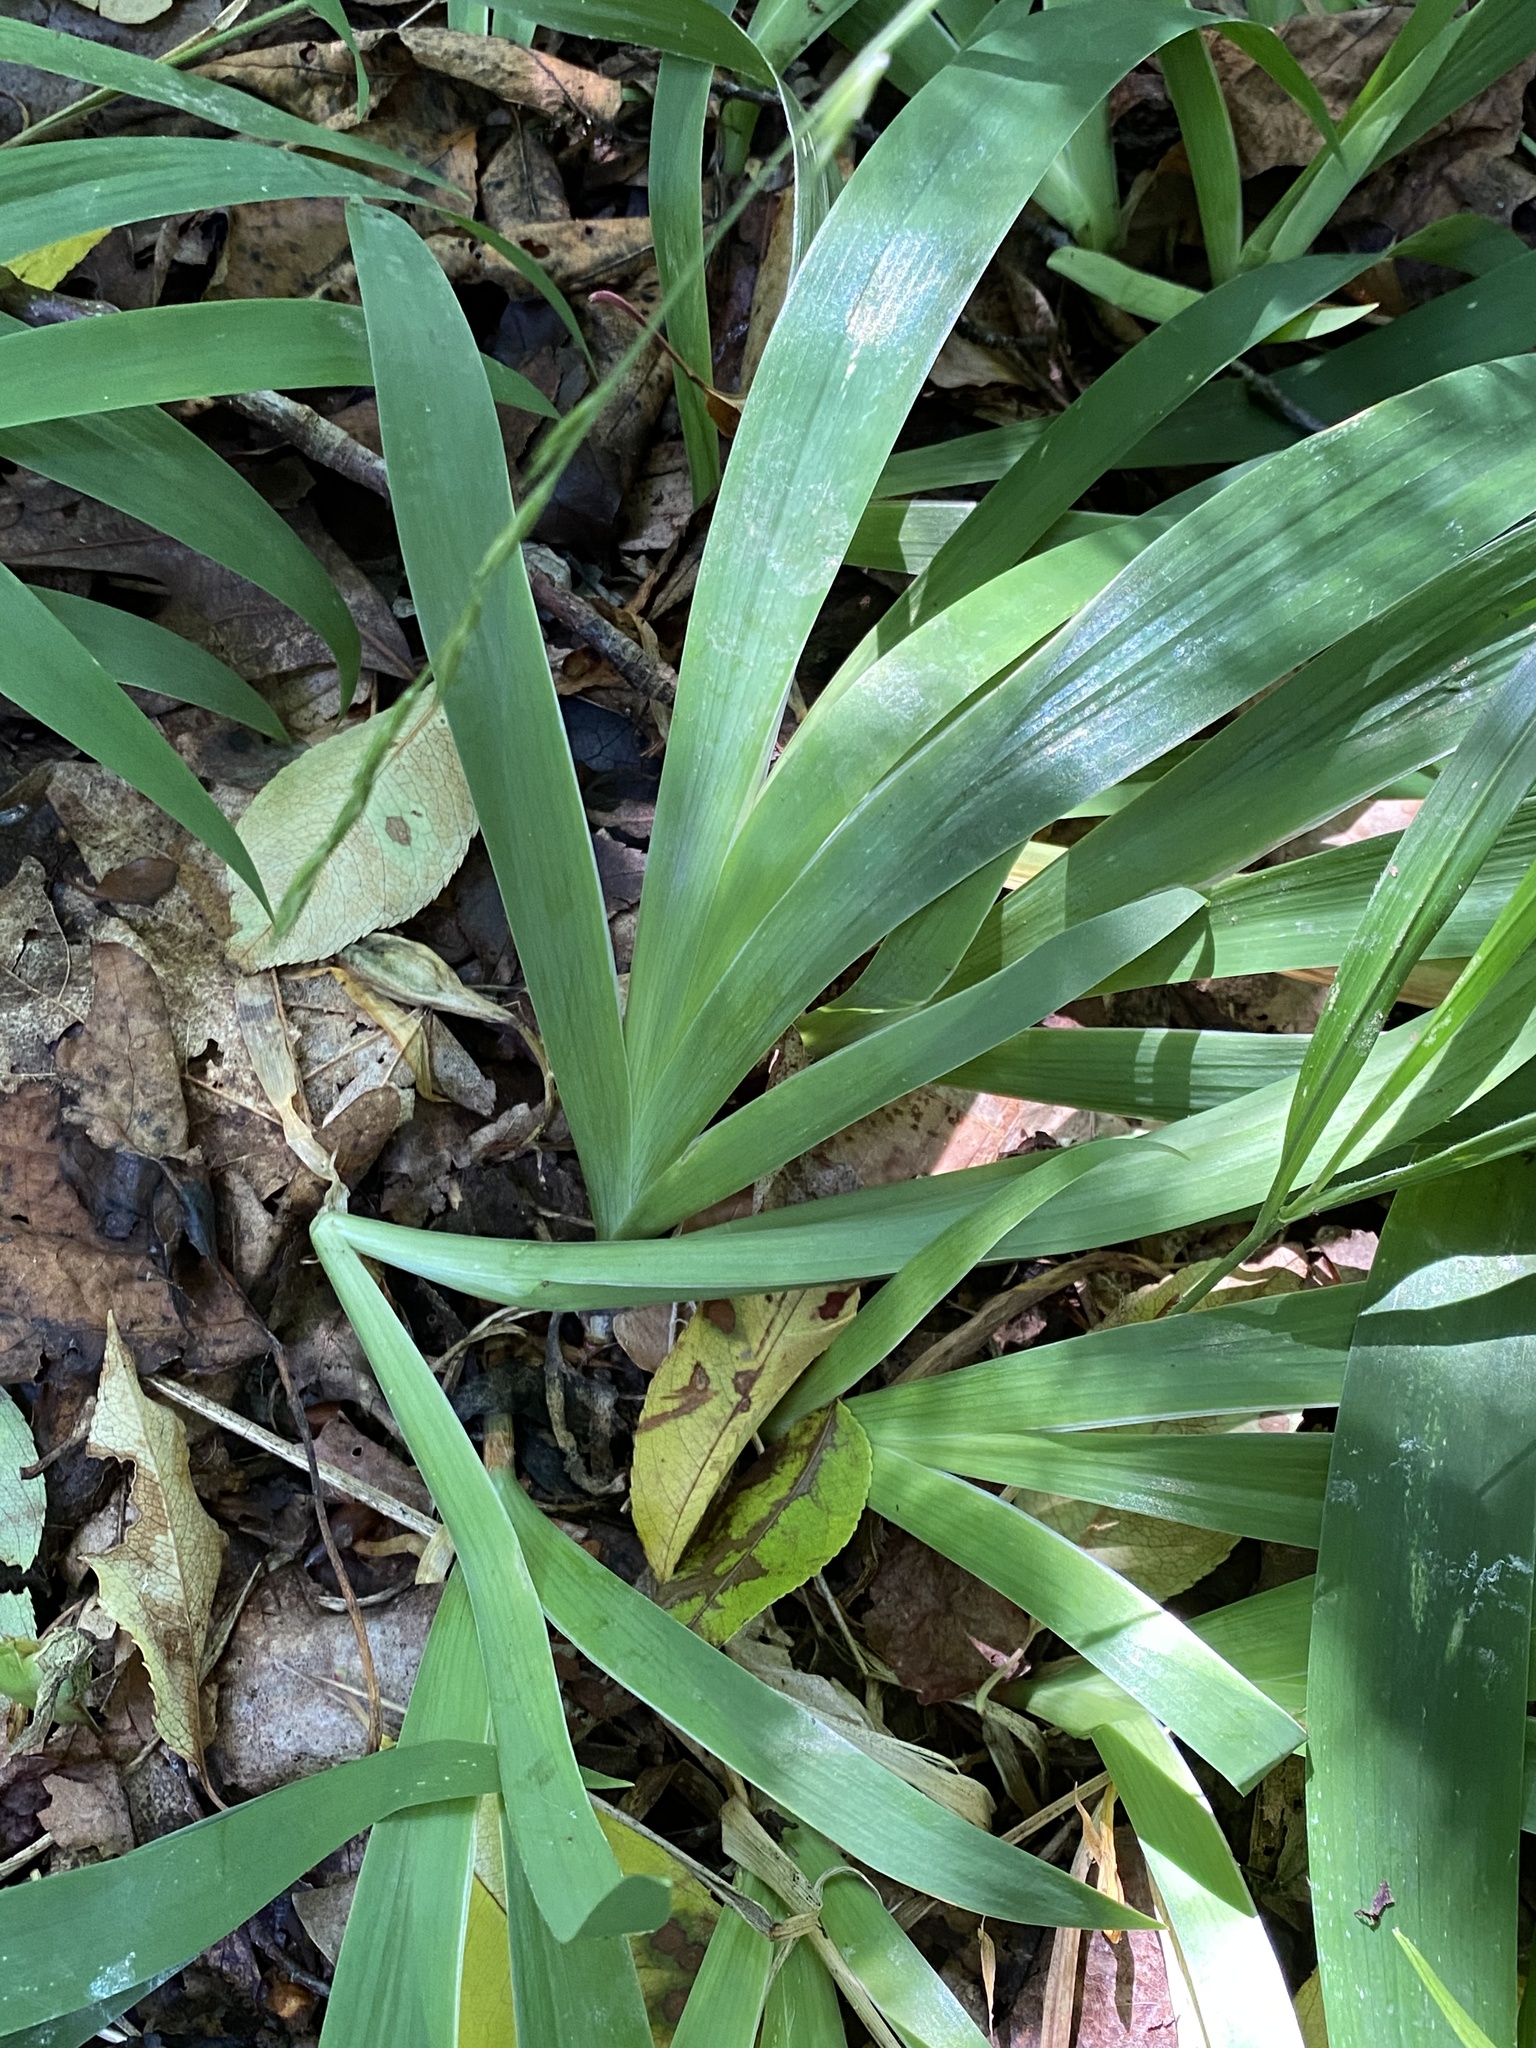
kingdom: Plantae
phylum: Tracheophyta
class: Liliopsida
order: Asparagales
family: Iridaceae
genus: Iris
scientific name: Iris cristata
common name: Crested iris
